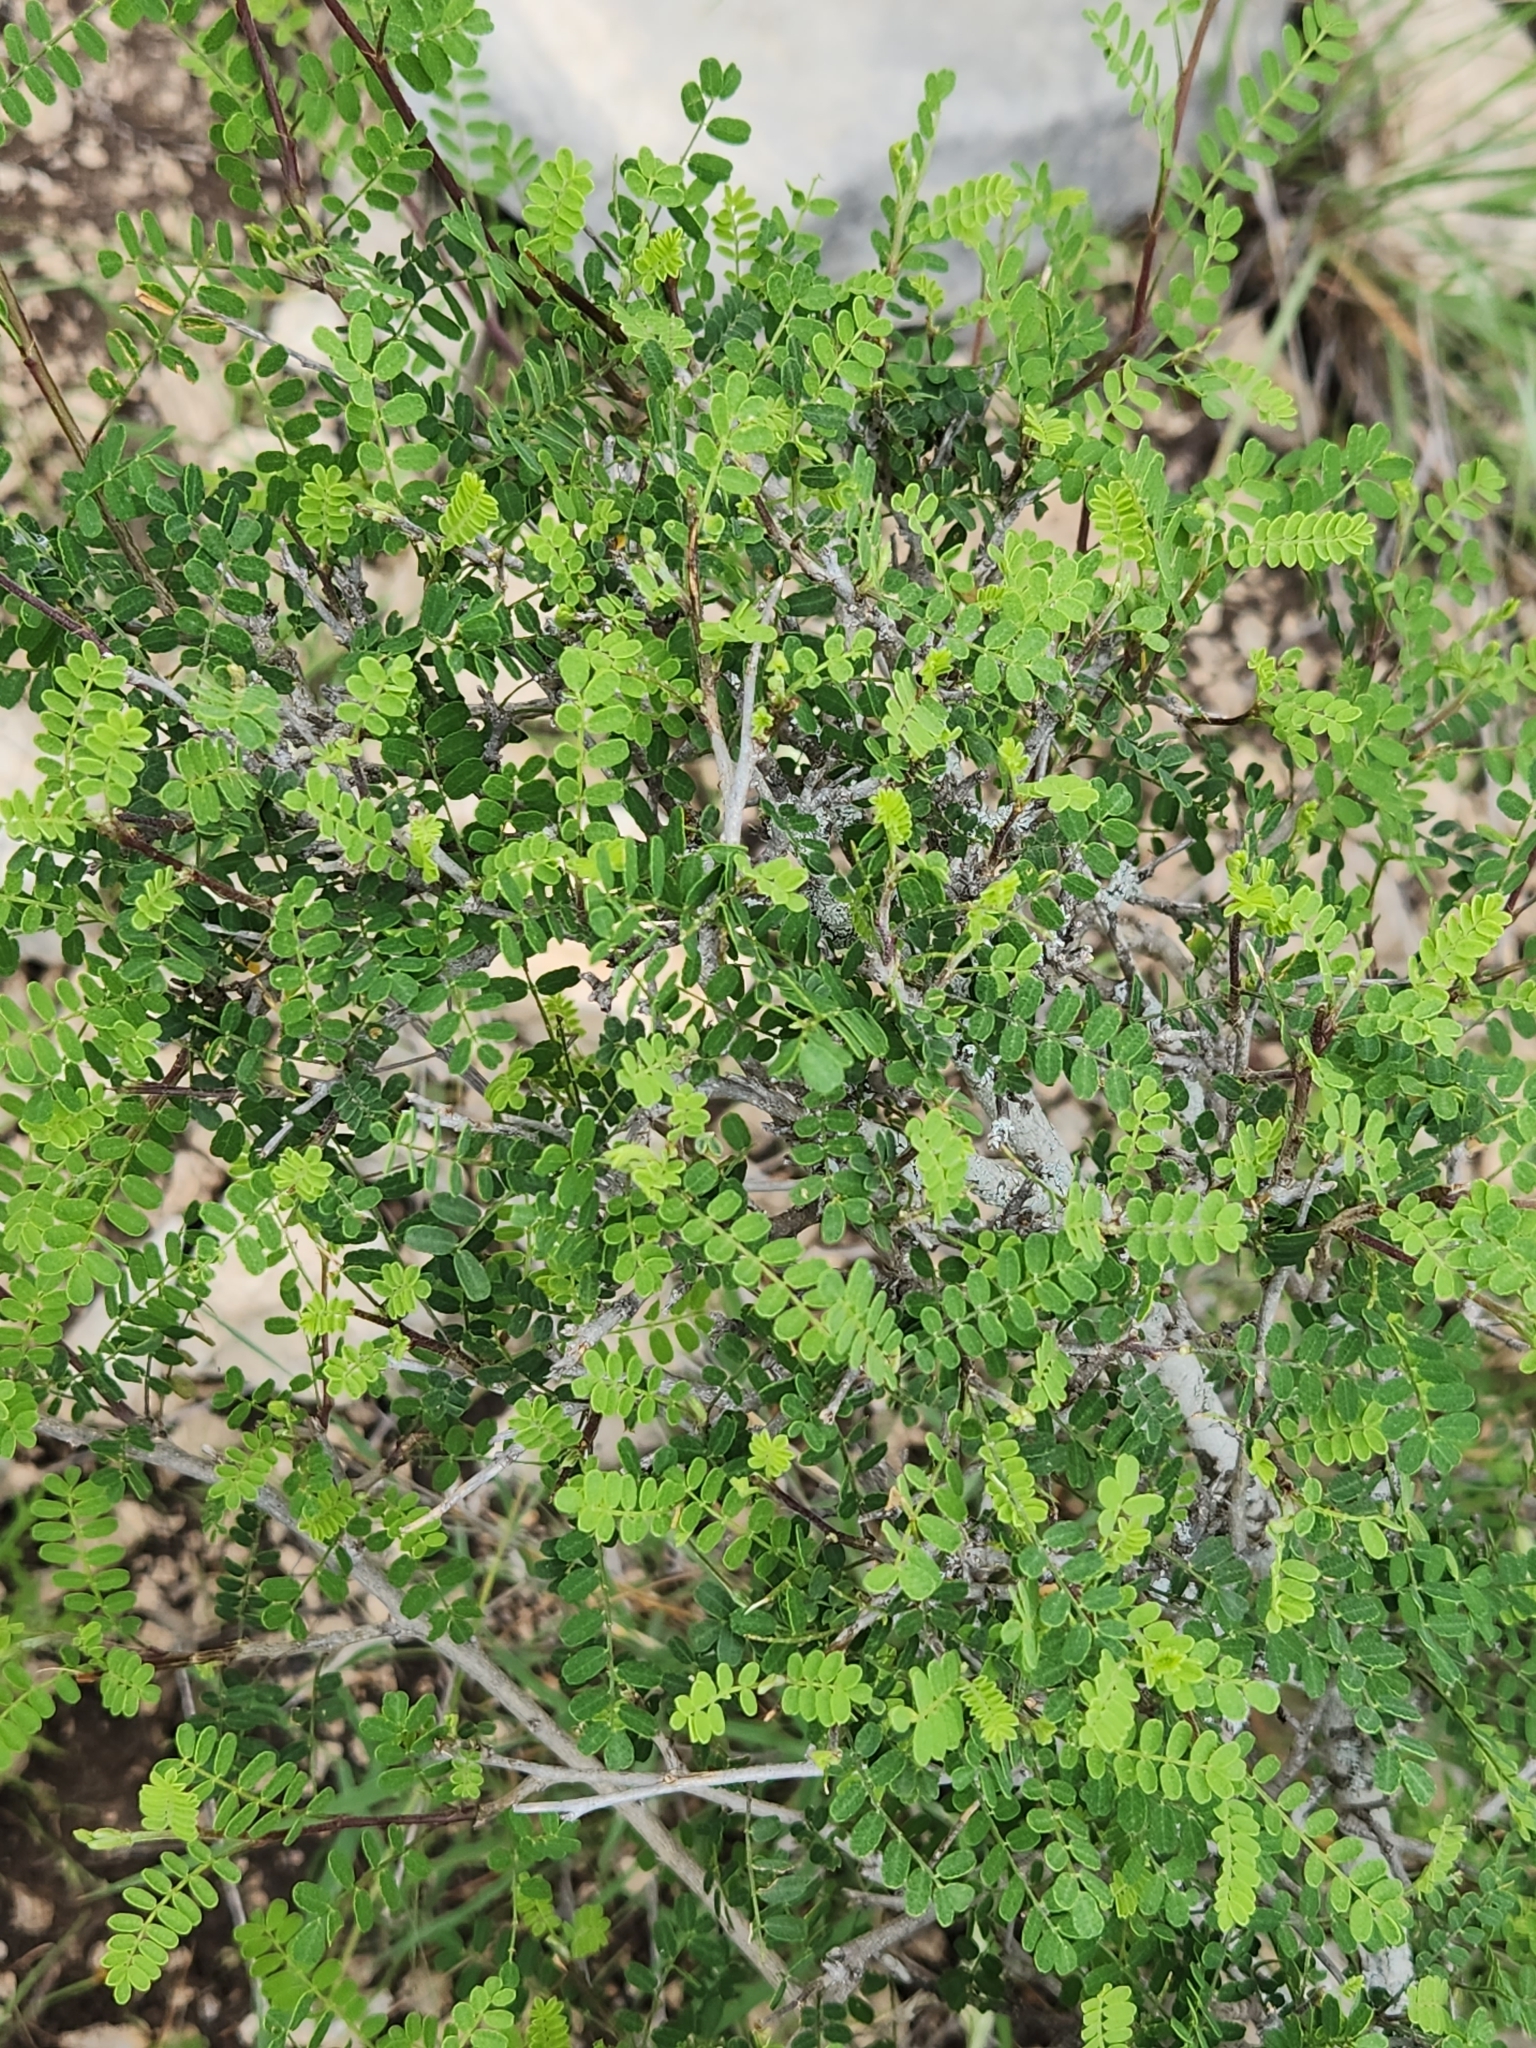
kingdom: Plantae
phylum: Tracheophyta
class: Magnoliopsida
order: Fabales
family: Fabaceae
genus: Eysenhardtia
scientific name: Eysenhardtia texana
